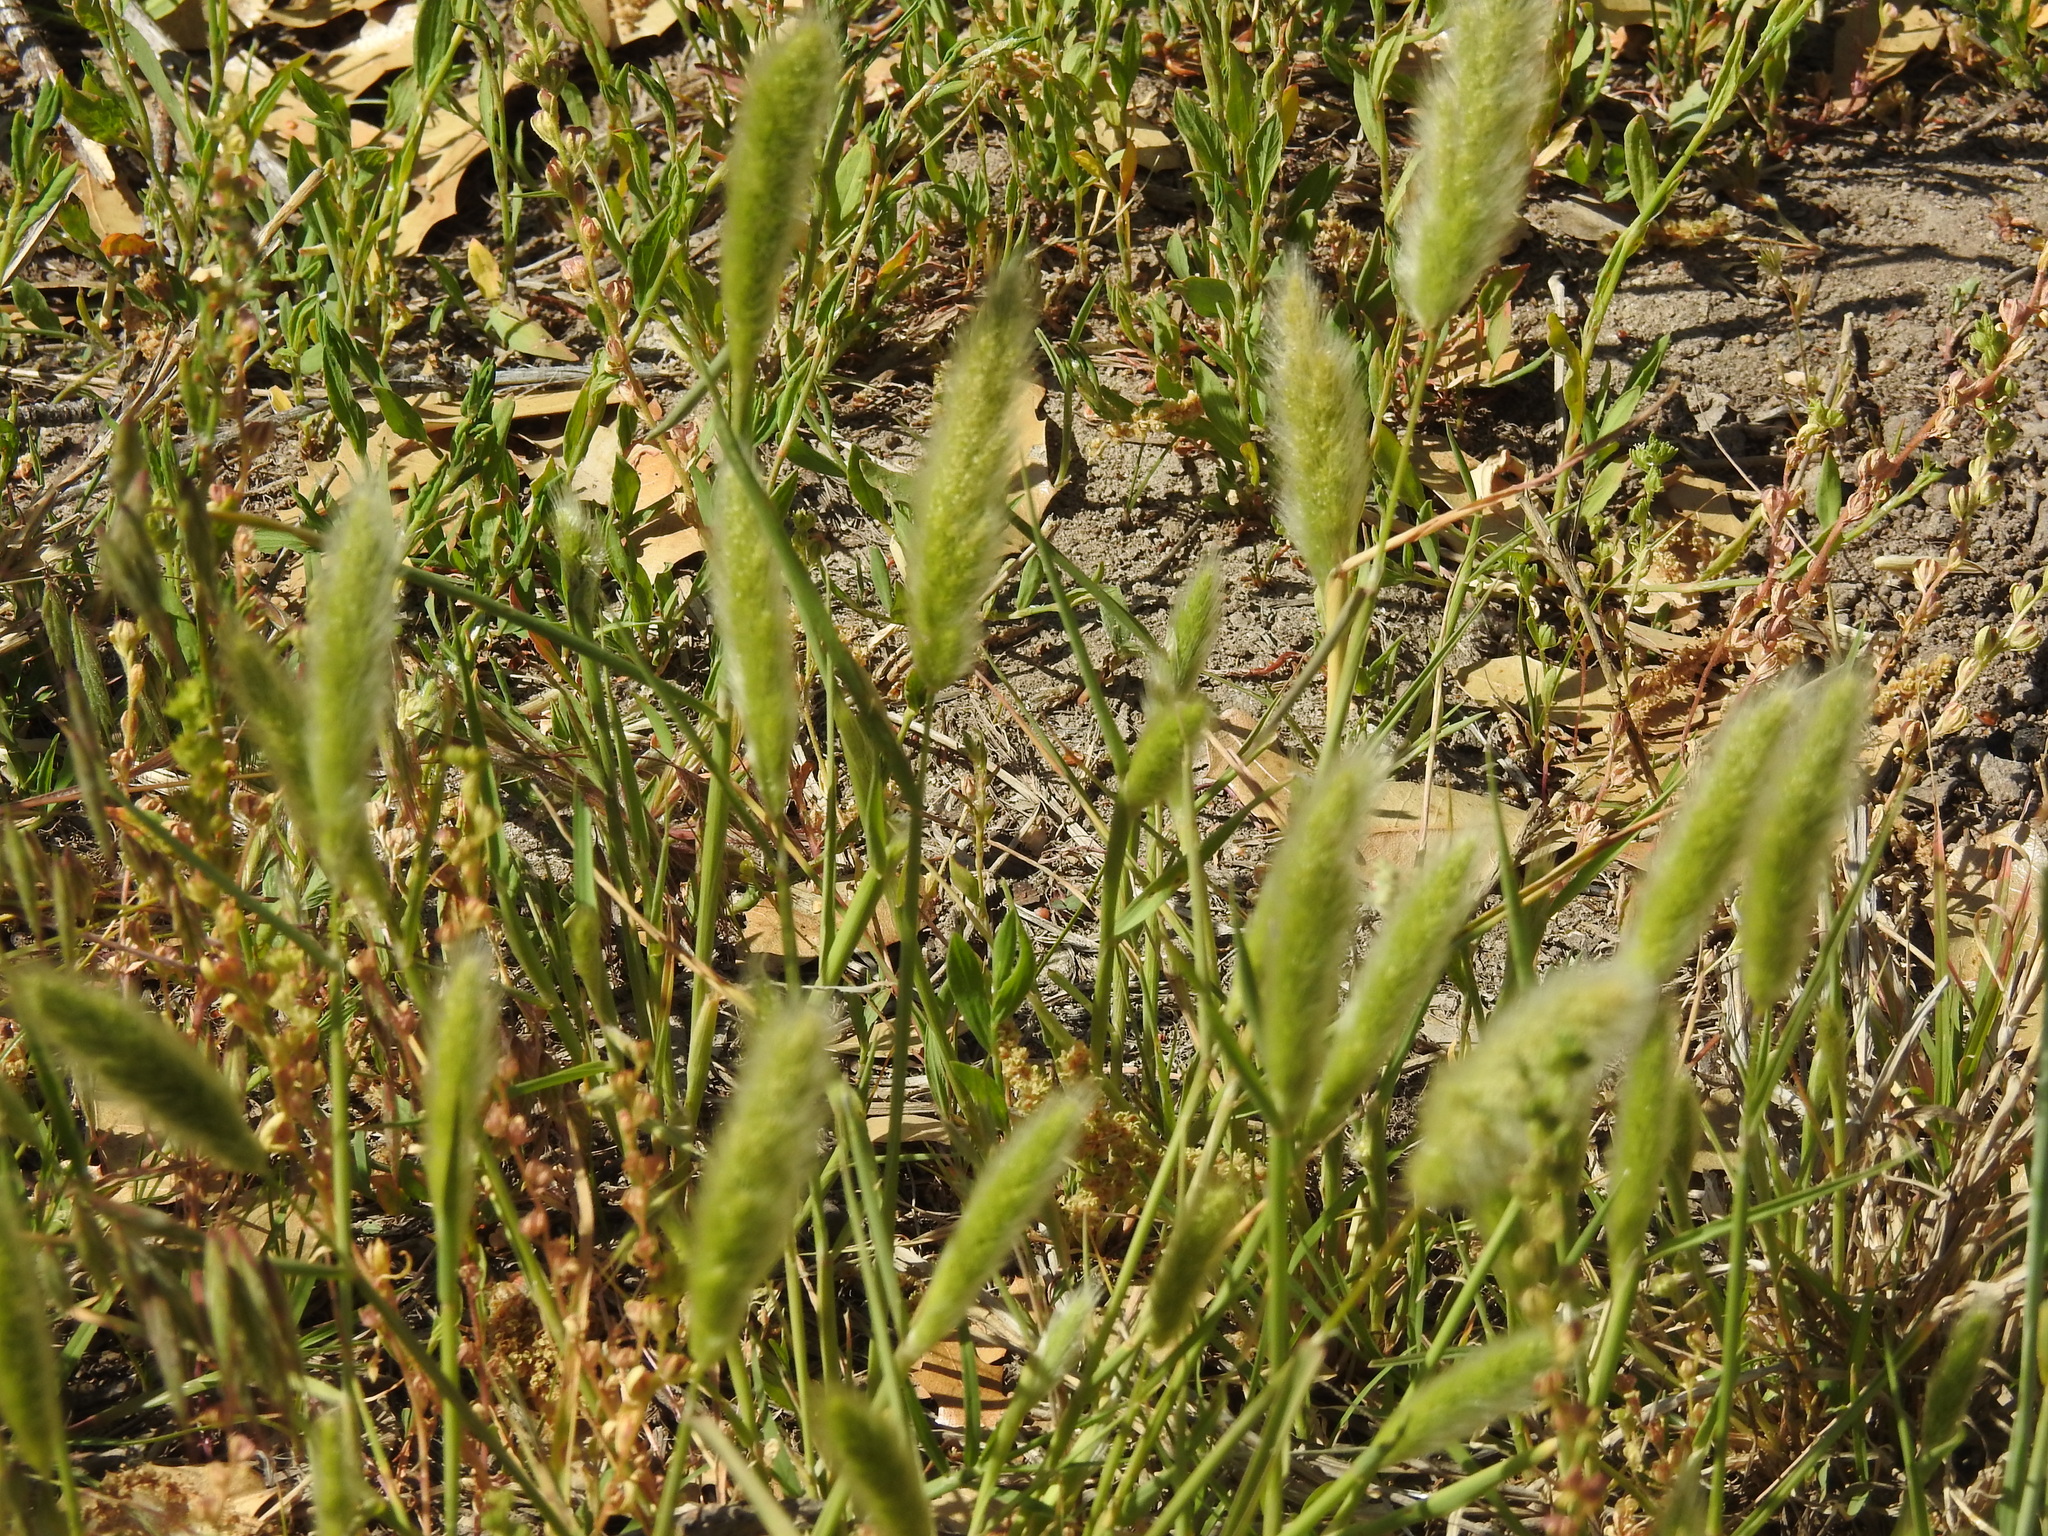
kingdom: Plantae
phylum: Tracheophyta
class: Liliopsida
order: Poales
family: Poaceae
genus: Polypogon
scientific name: Polypogon monspeliensis
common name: Annual rabbitsfoot grass
